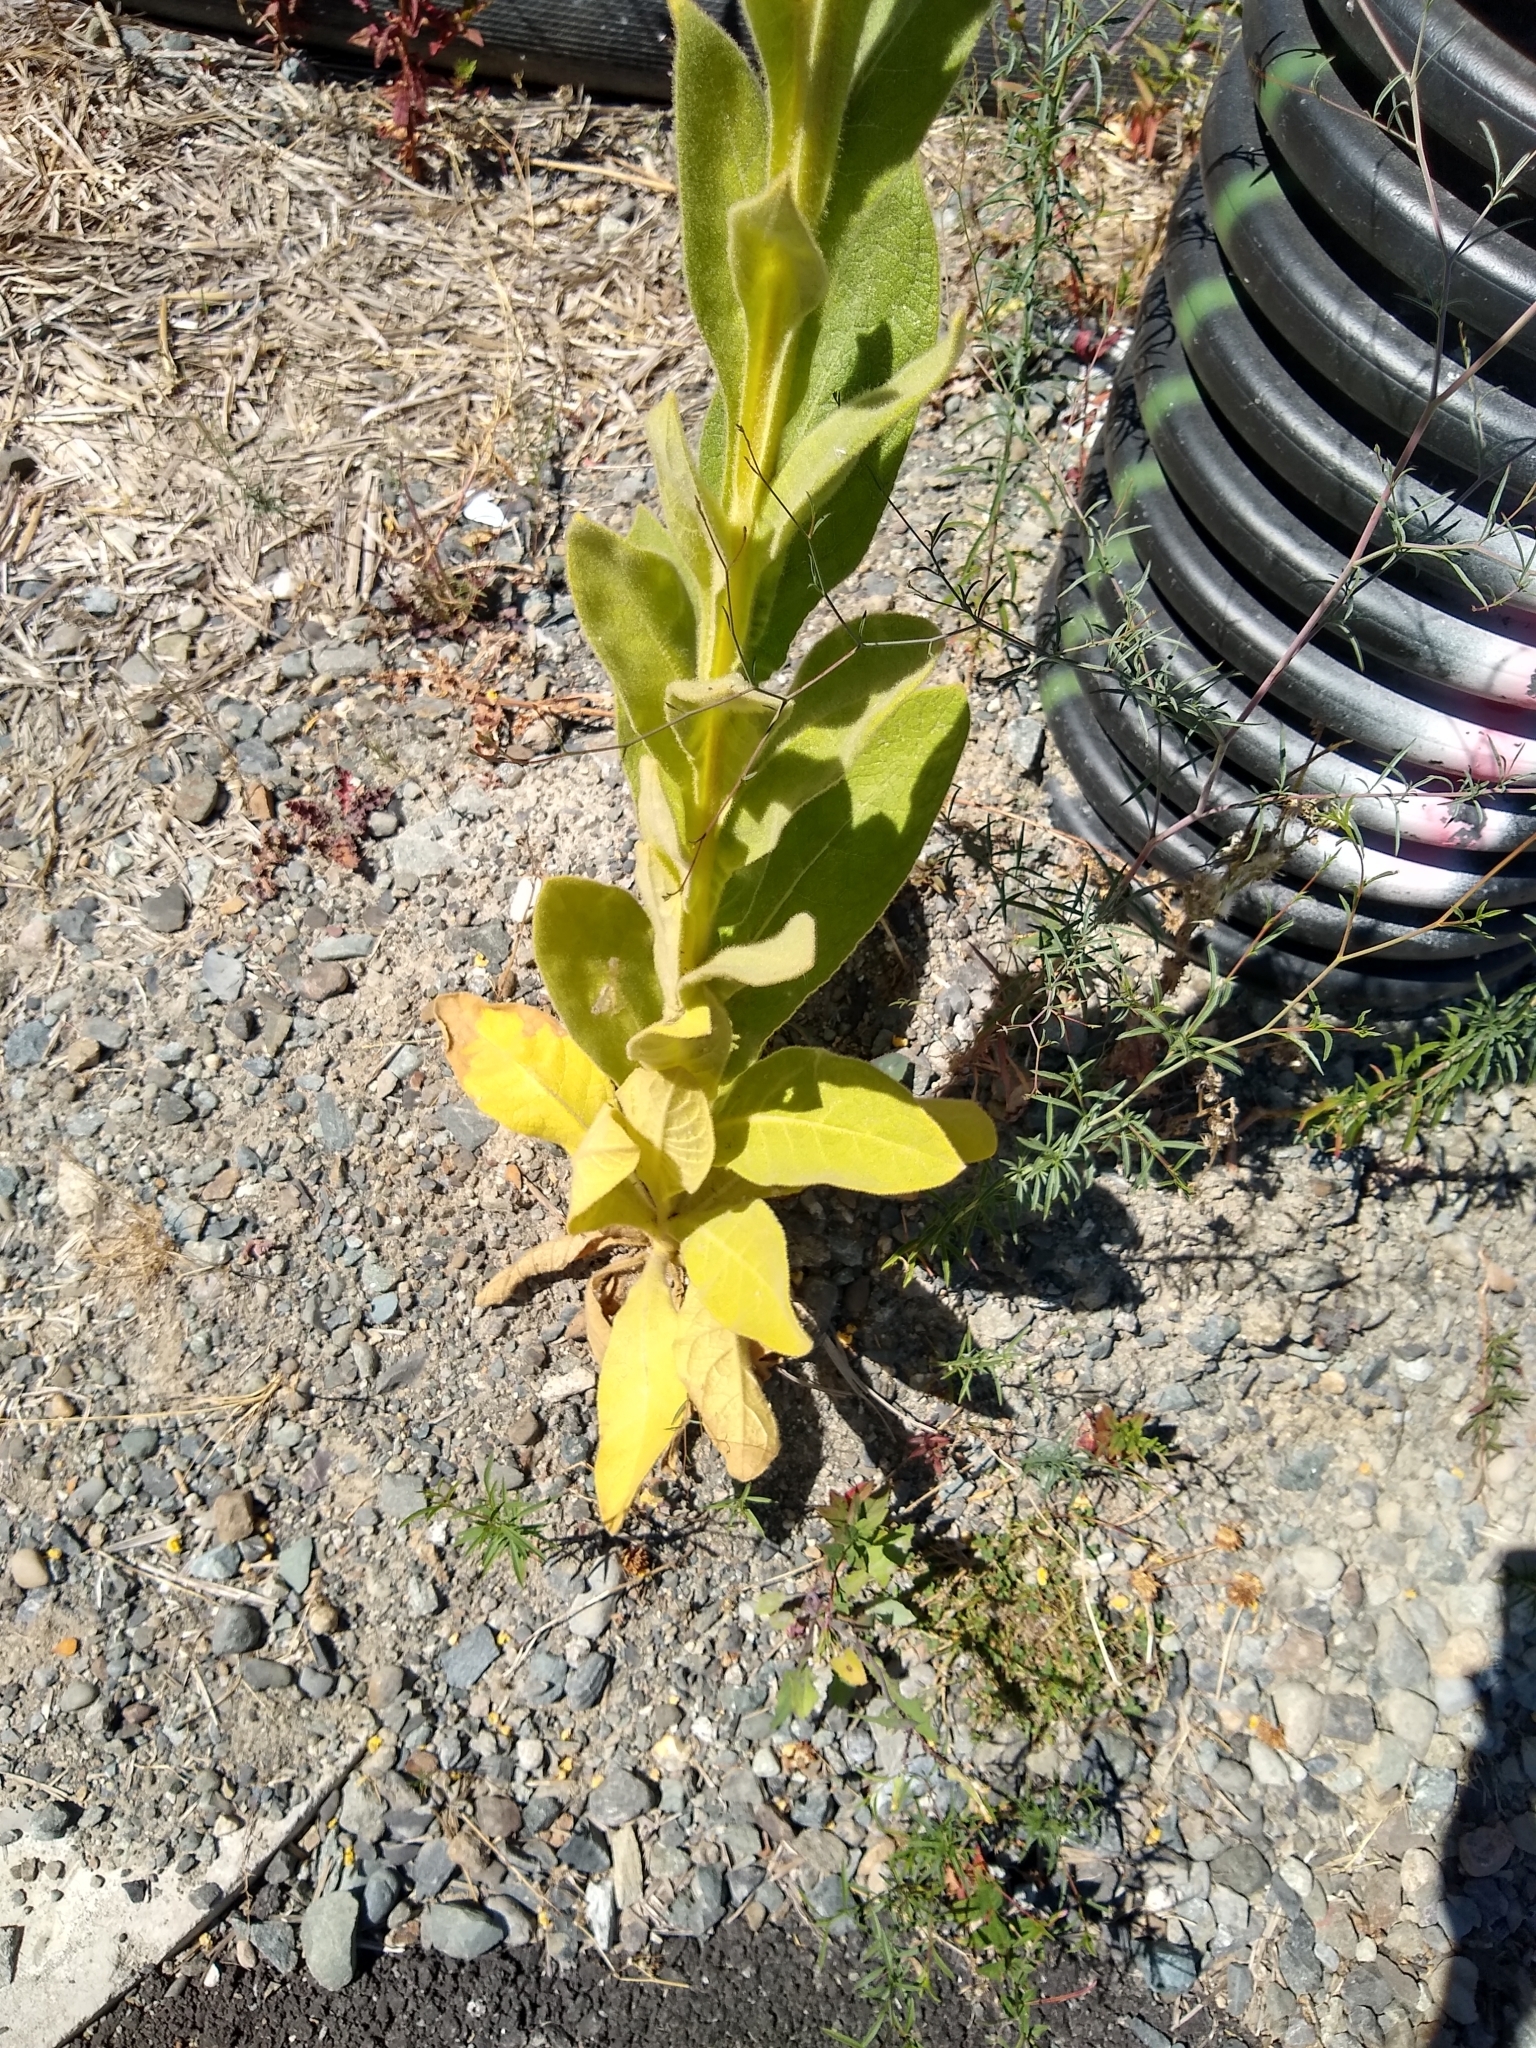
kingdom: Plantae
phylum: Tracheophyta
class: Magnoliopsida
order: Lamiales
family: Scrophulariaceae
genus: Verbascum
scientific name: Verbascum thapsus
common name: Common mullein
